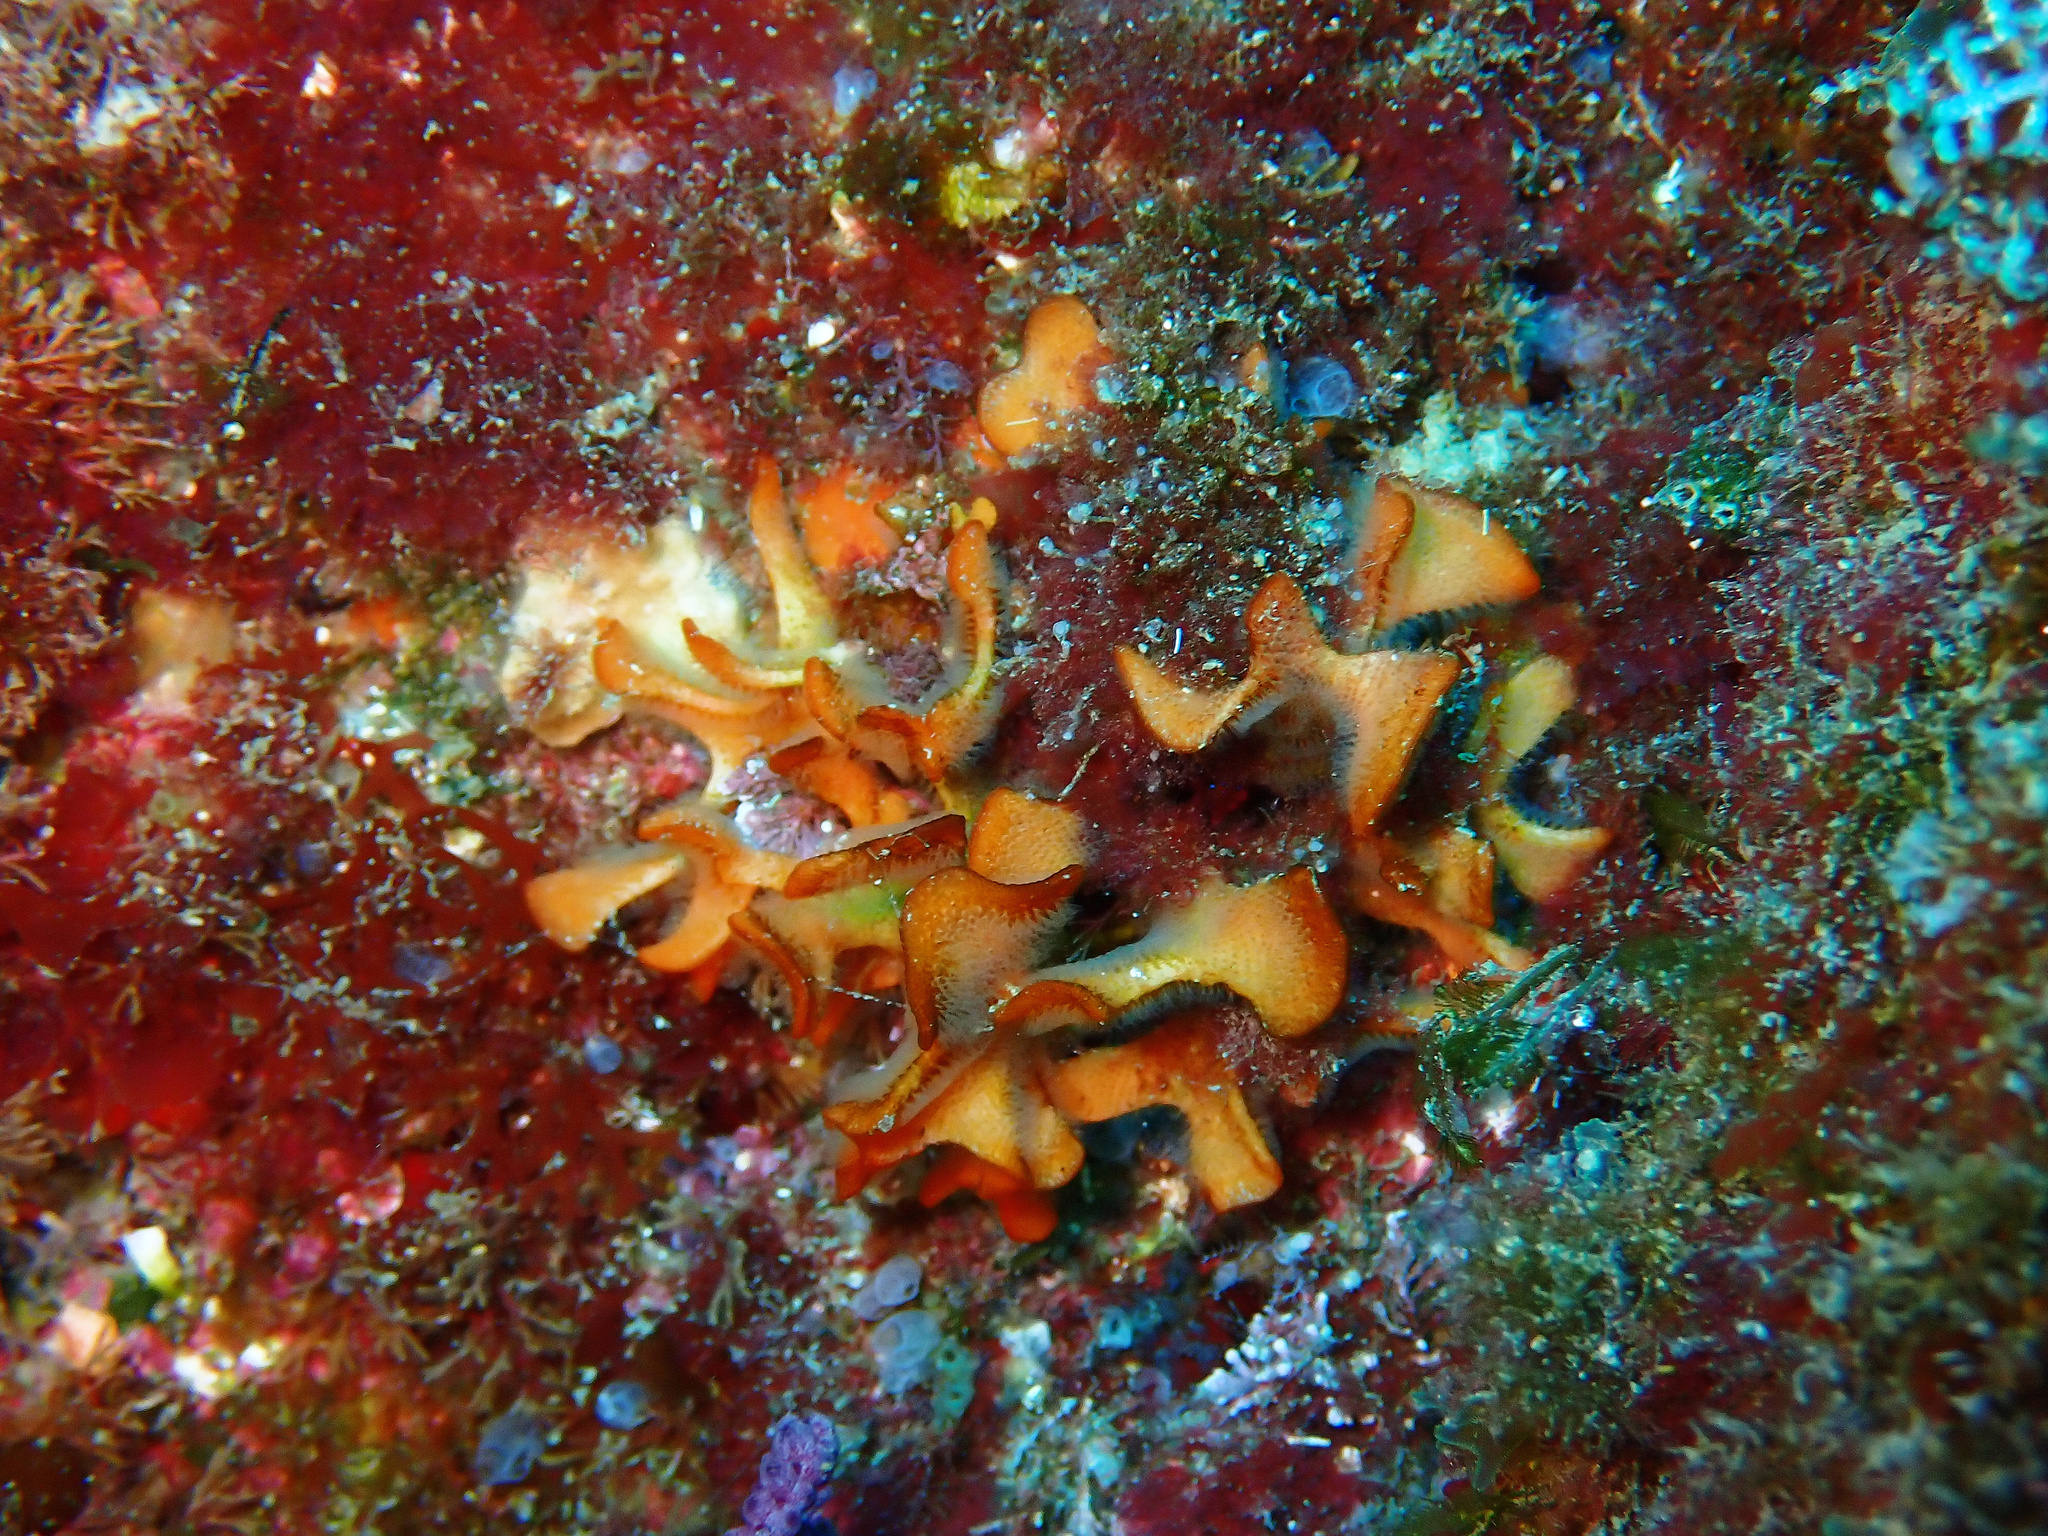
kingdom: Animalia
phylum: Bryozoa
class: Gymnolaemata
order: Cheilostomatida
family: Bitectiporidae
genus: Pentapora
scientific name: Pentapora fascialis
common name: Ross coral
